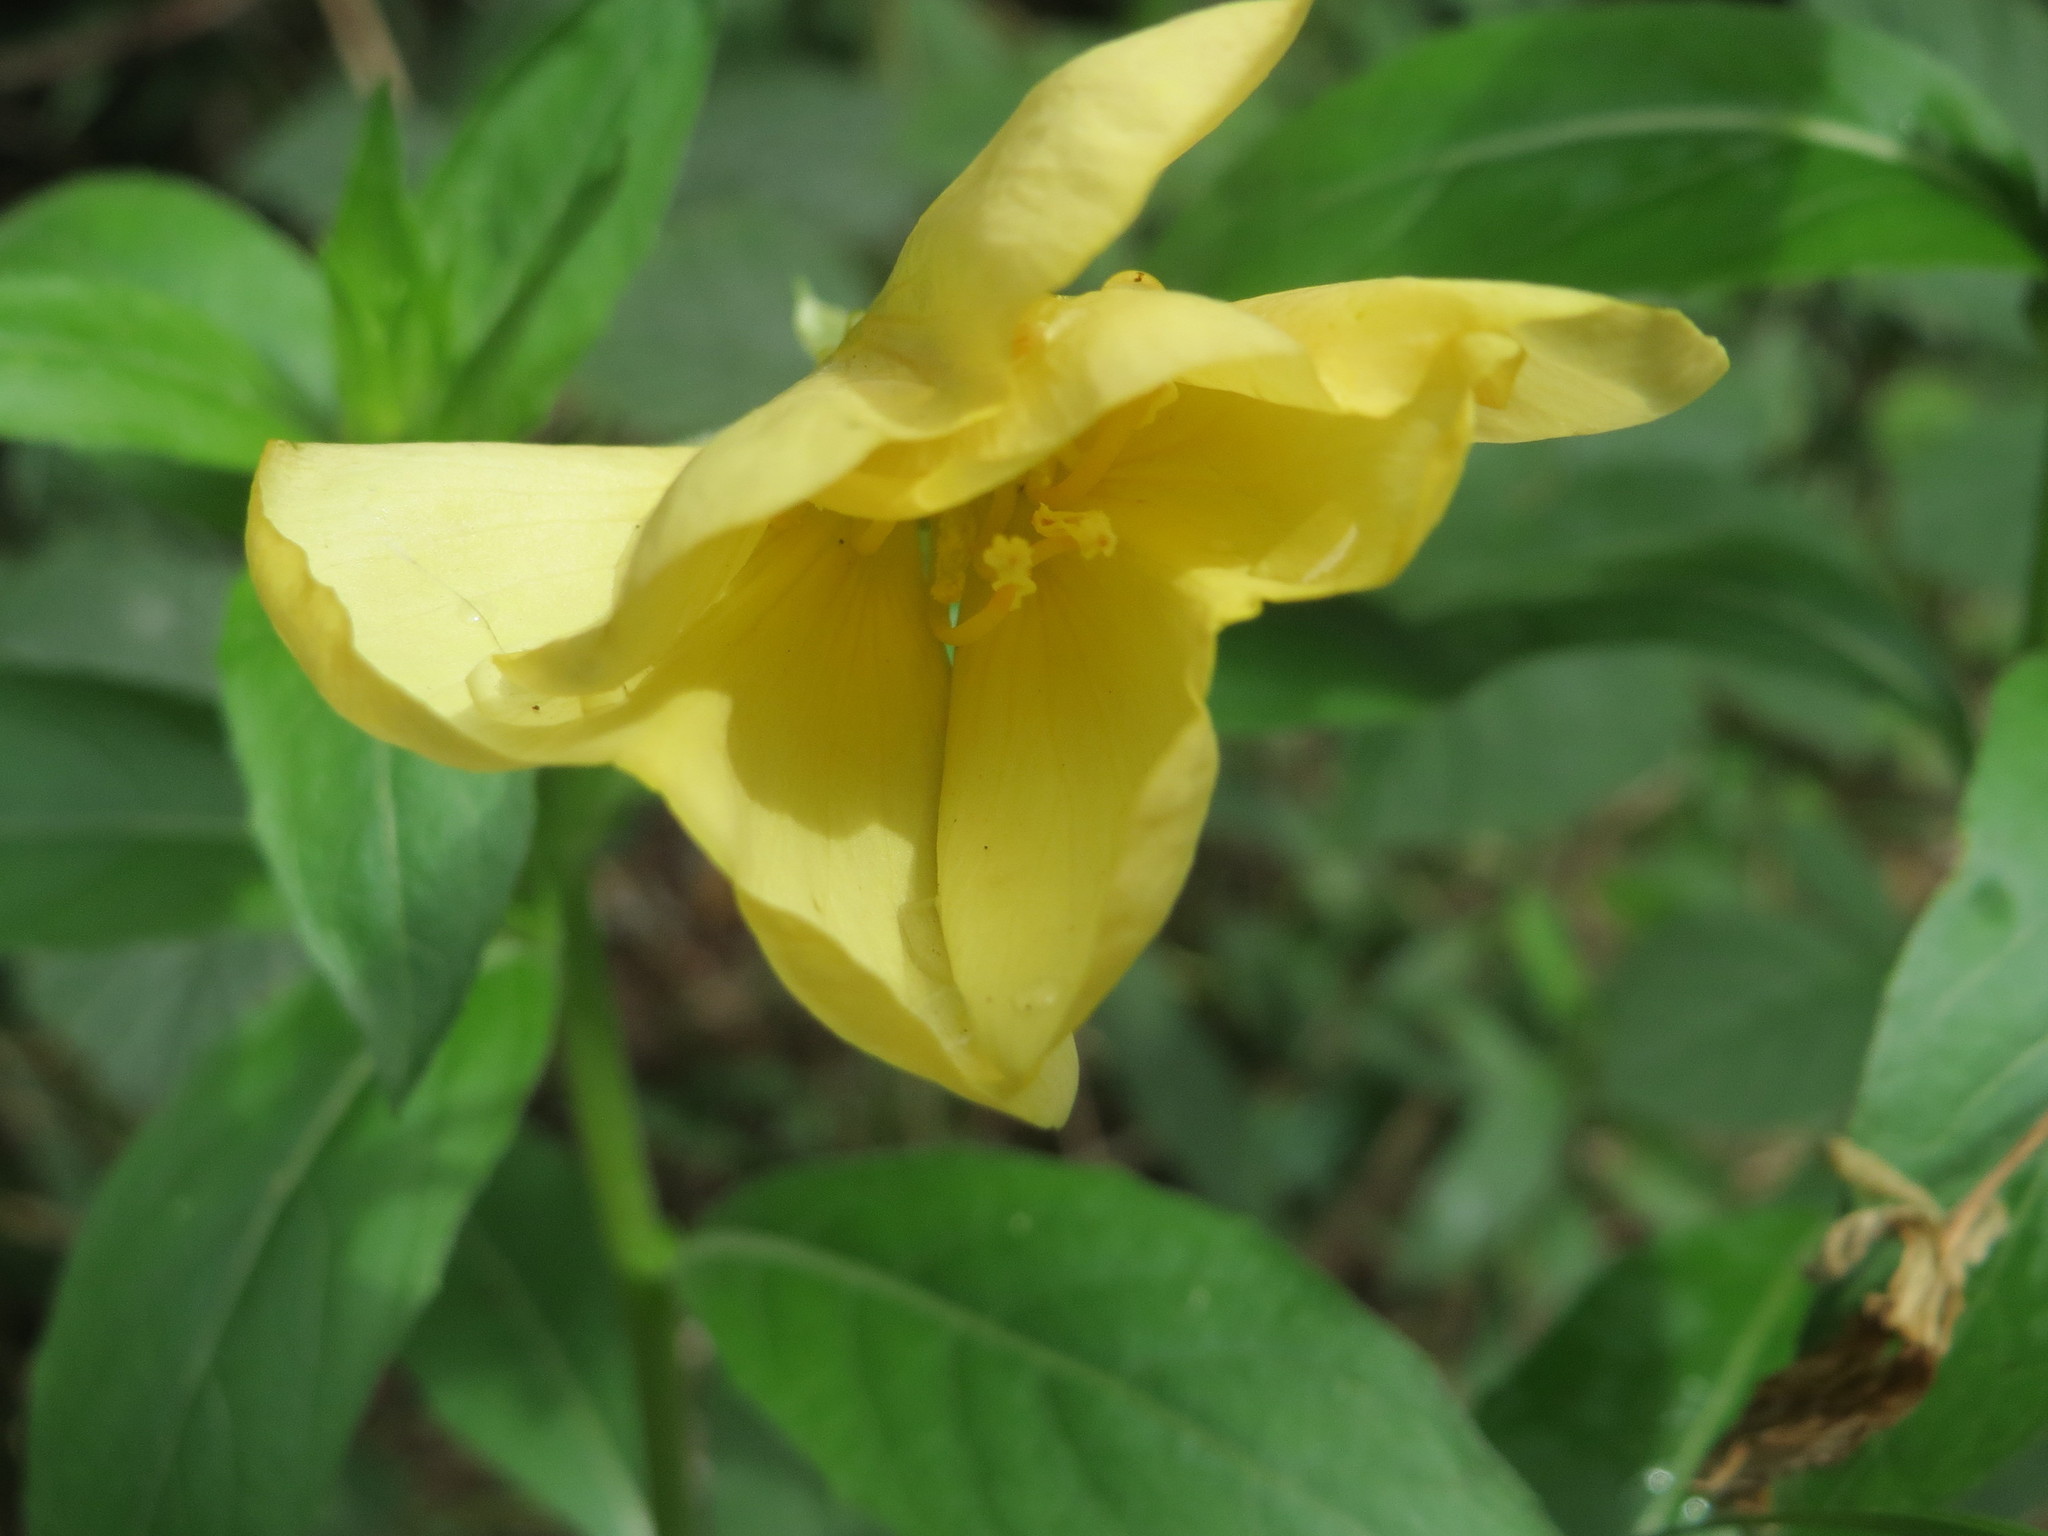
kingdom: Plantae
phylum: Tracheophyta
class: Magnoliopsida
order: Myrtales
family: Onagraceae
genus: Oenothera
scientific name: Oenothera biennis
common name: Common evening-primrose
